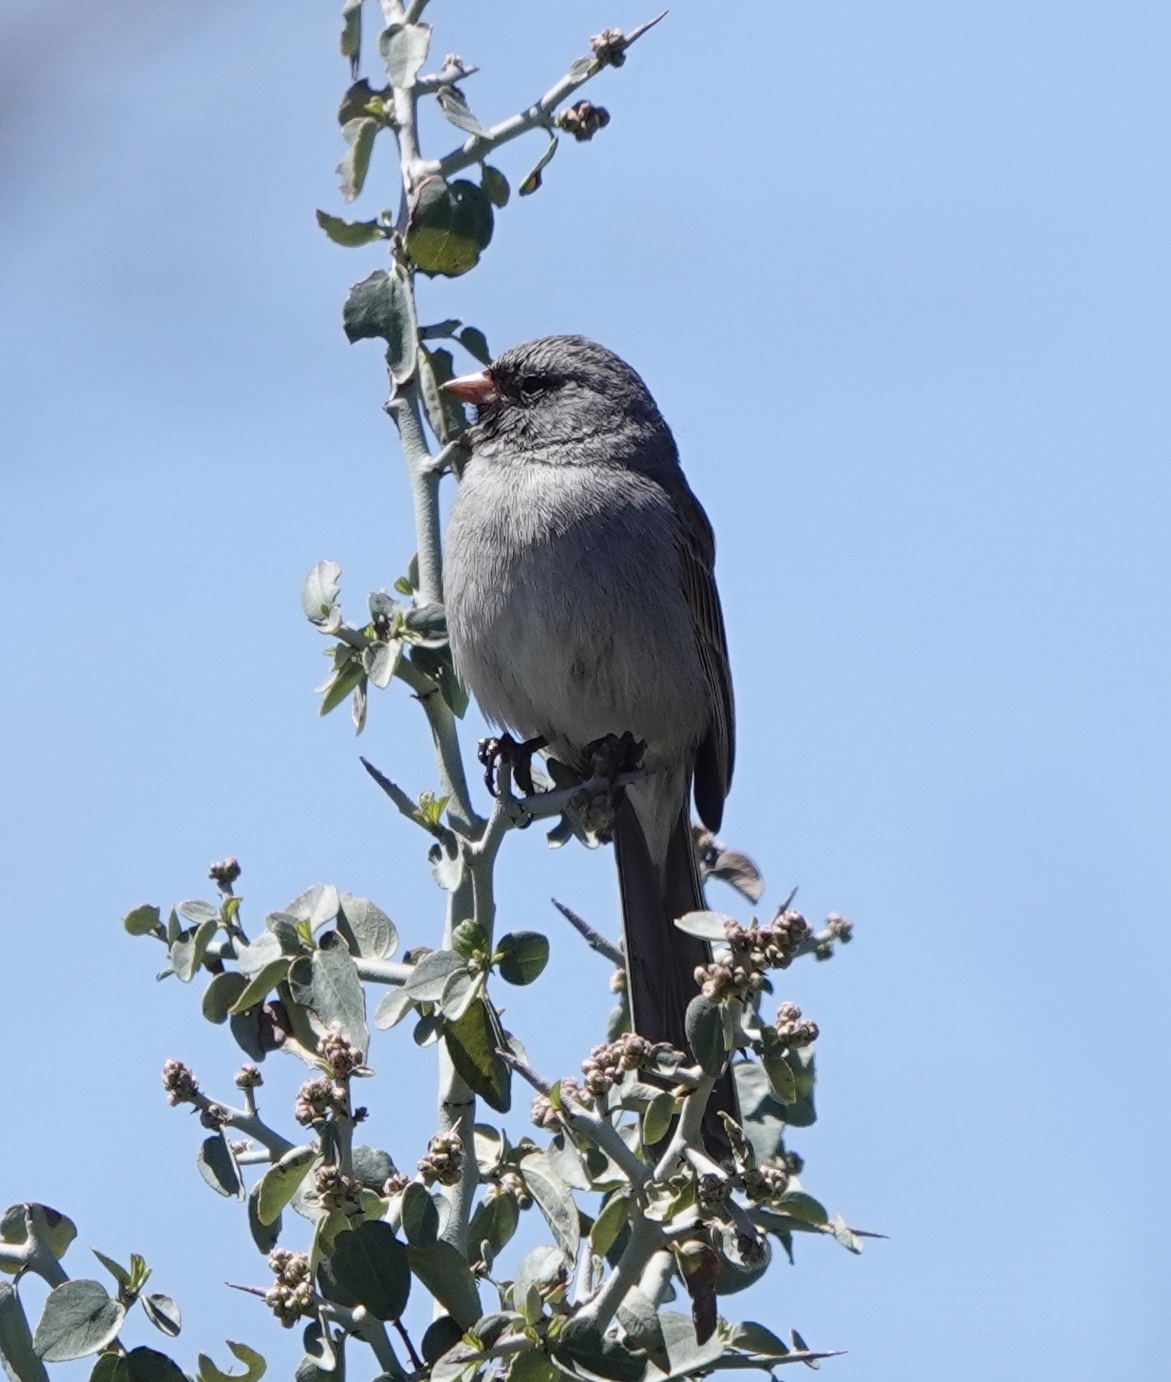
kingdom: Animalia
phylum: Chordata
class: Aves
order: Passeriformes
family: Passerellidae
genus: Spizella
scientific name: Spizella atrogularis
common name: Black-chinned sparrow
